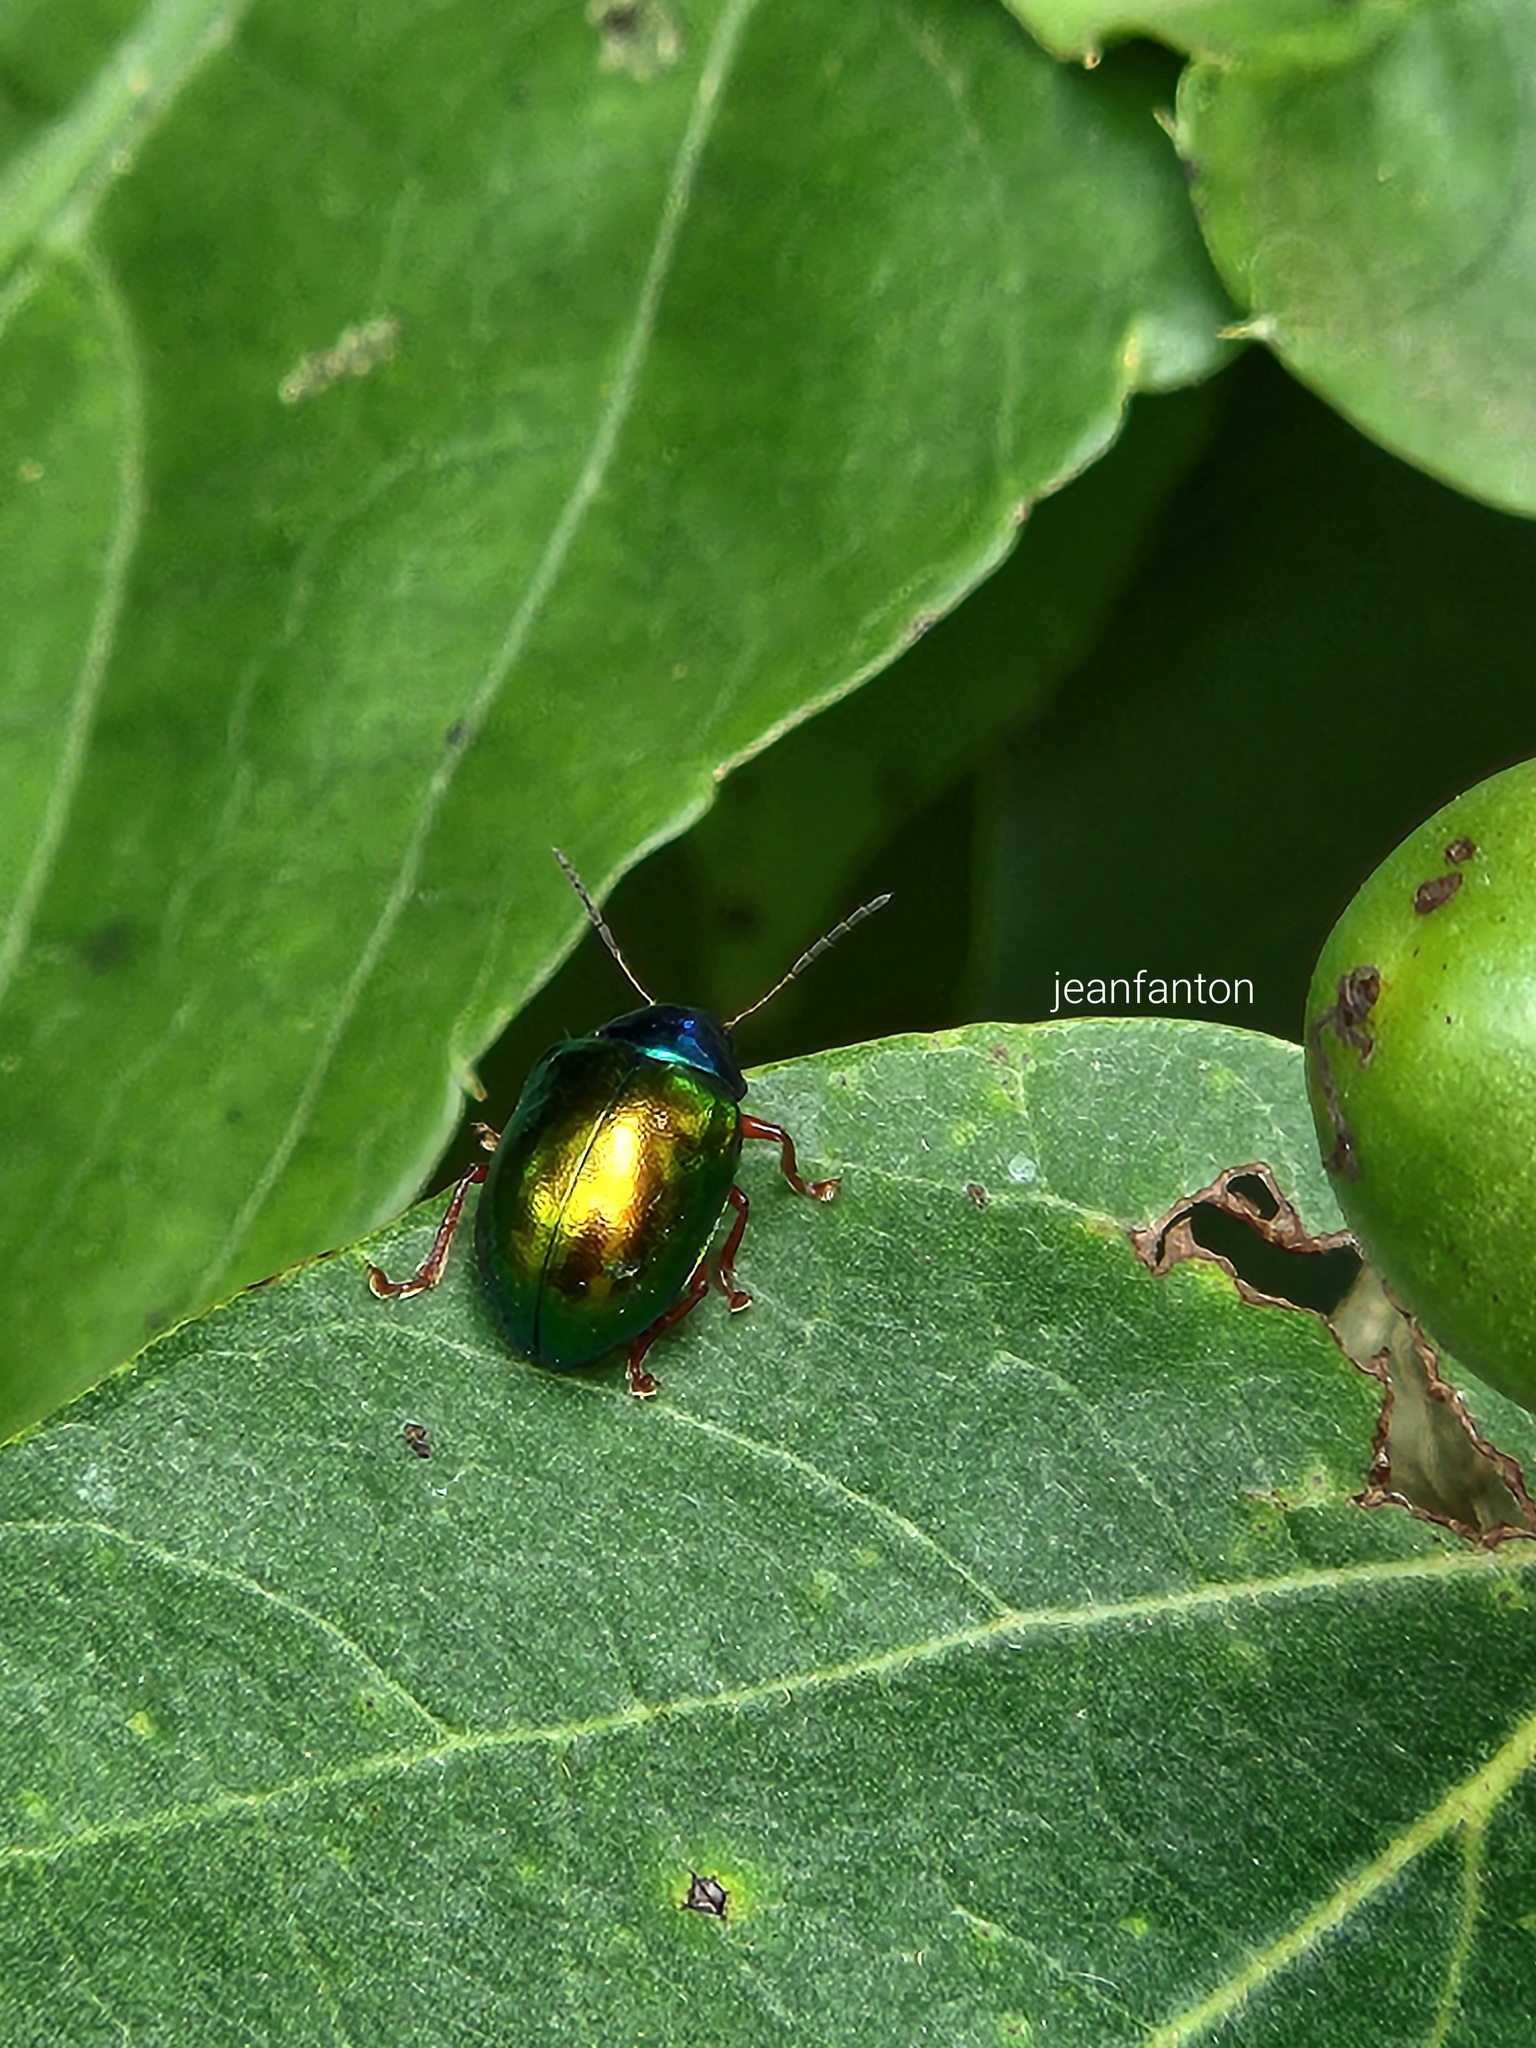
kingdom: Animalia
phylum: Arthropoda
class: Insecta
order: Coleoptera
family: Chrysomelidae
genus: Iphimeis
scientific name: Iphimeis
